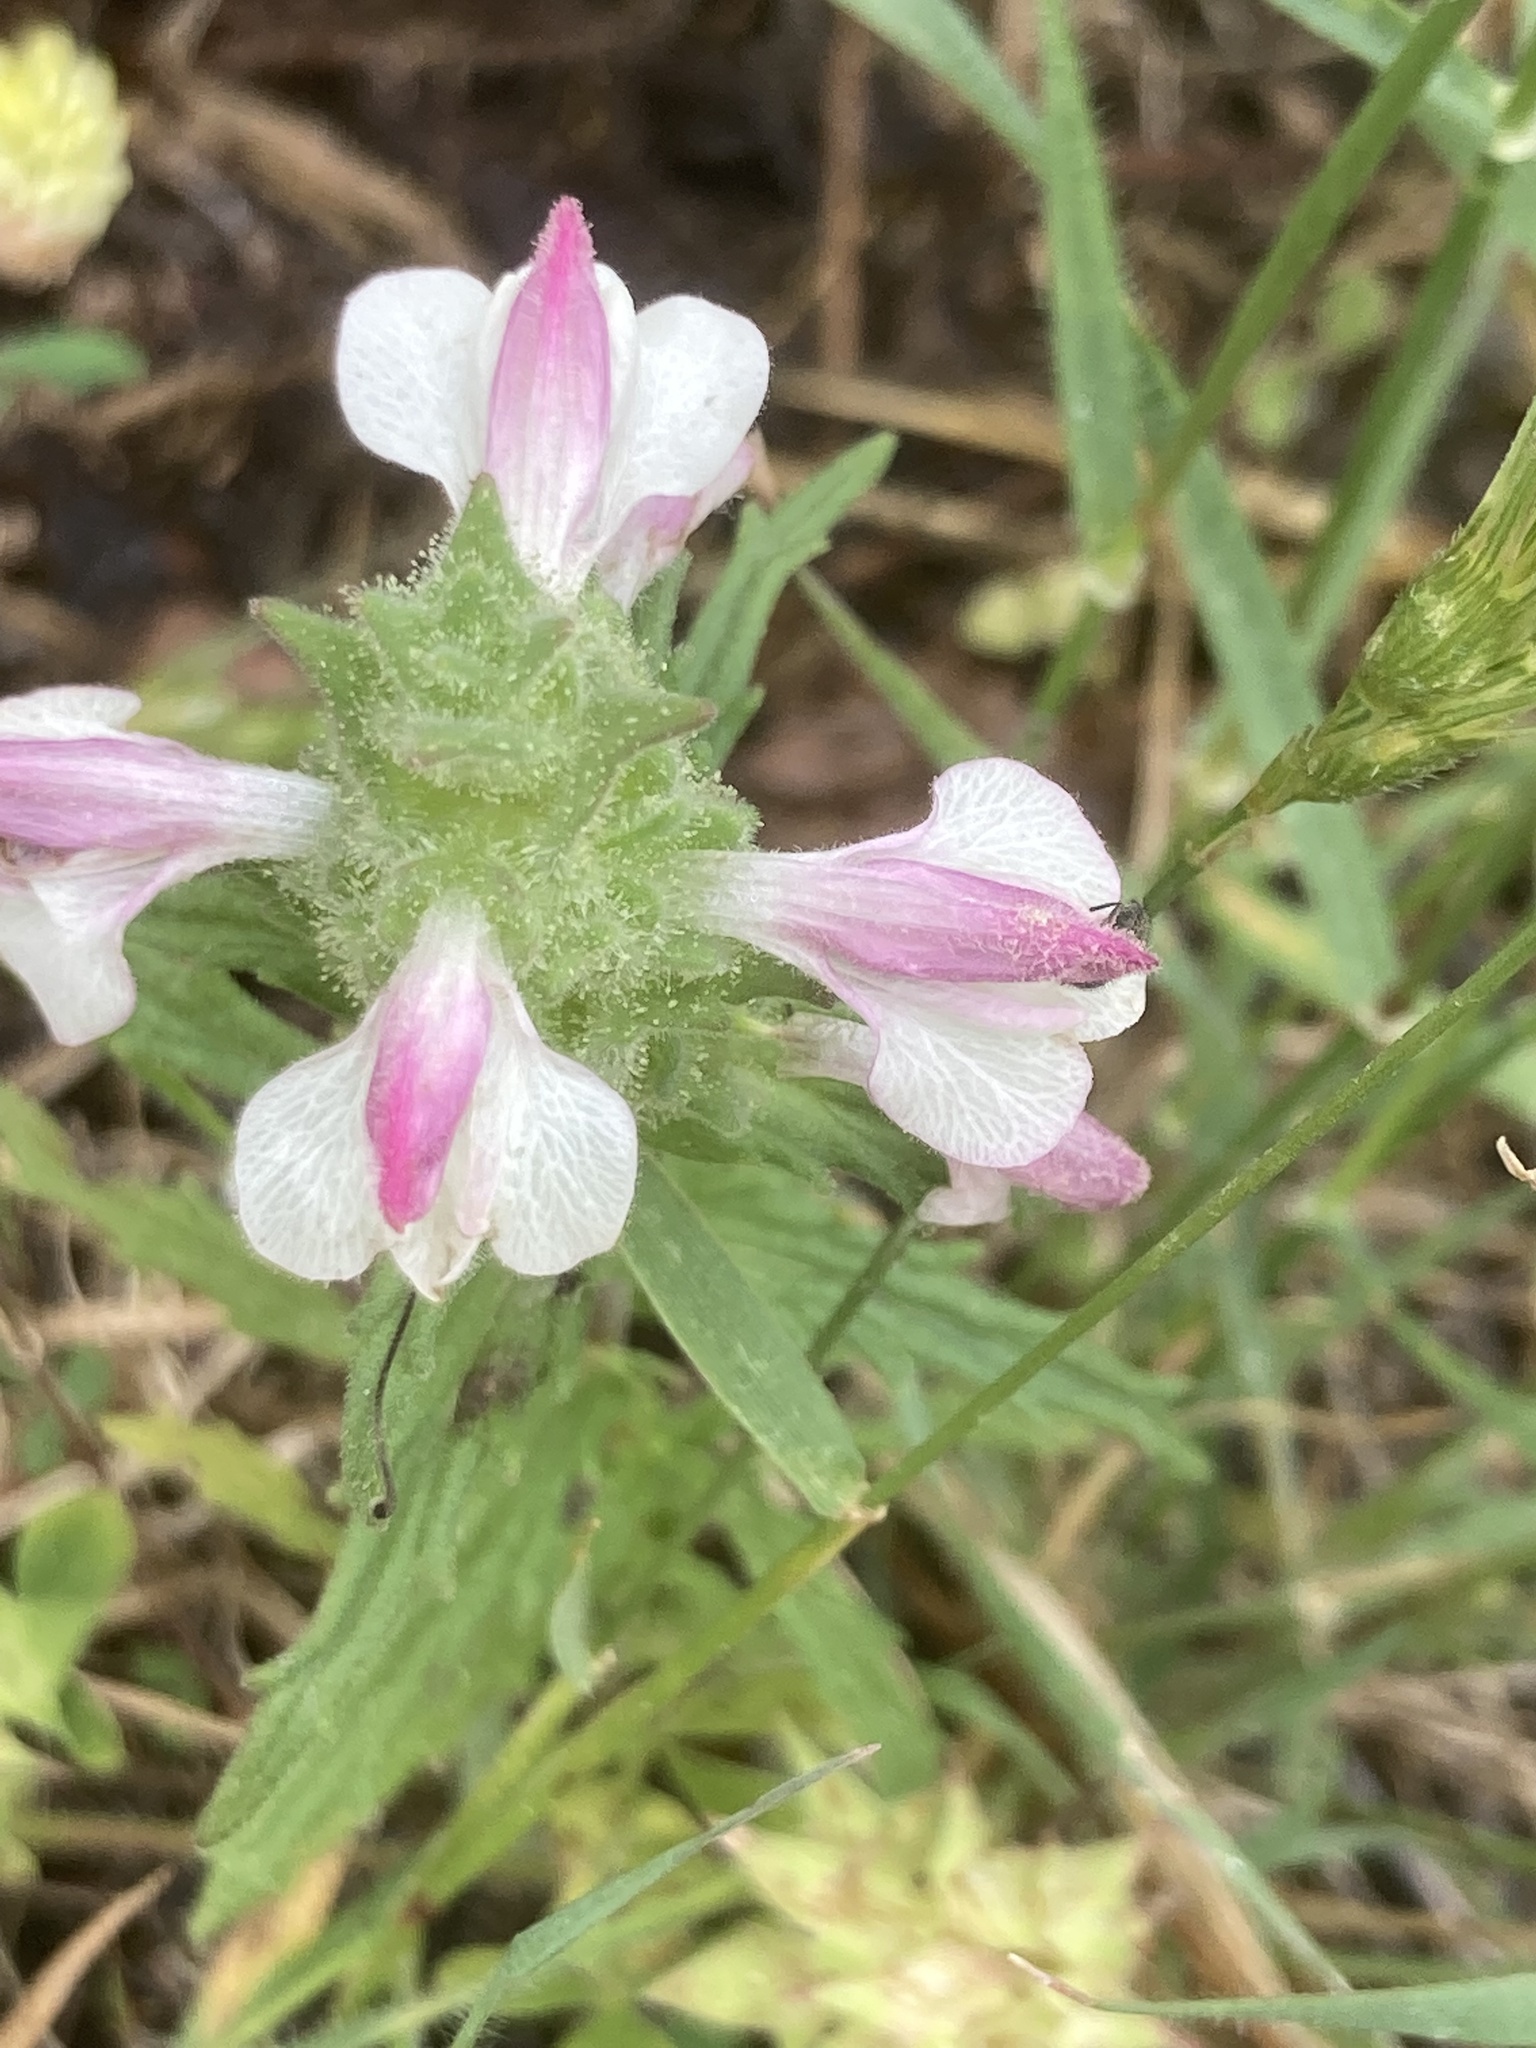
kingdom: Plantae
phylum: Tracheophyta
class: Magnoliopsida
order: Lamiales
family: Orobanchaceae
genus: Bellardia
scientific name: Bellardia trixago
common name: Mediterranean lineseed
